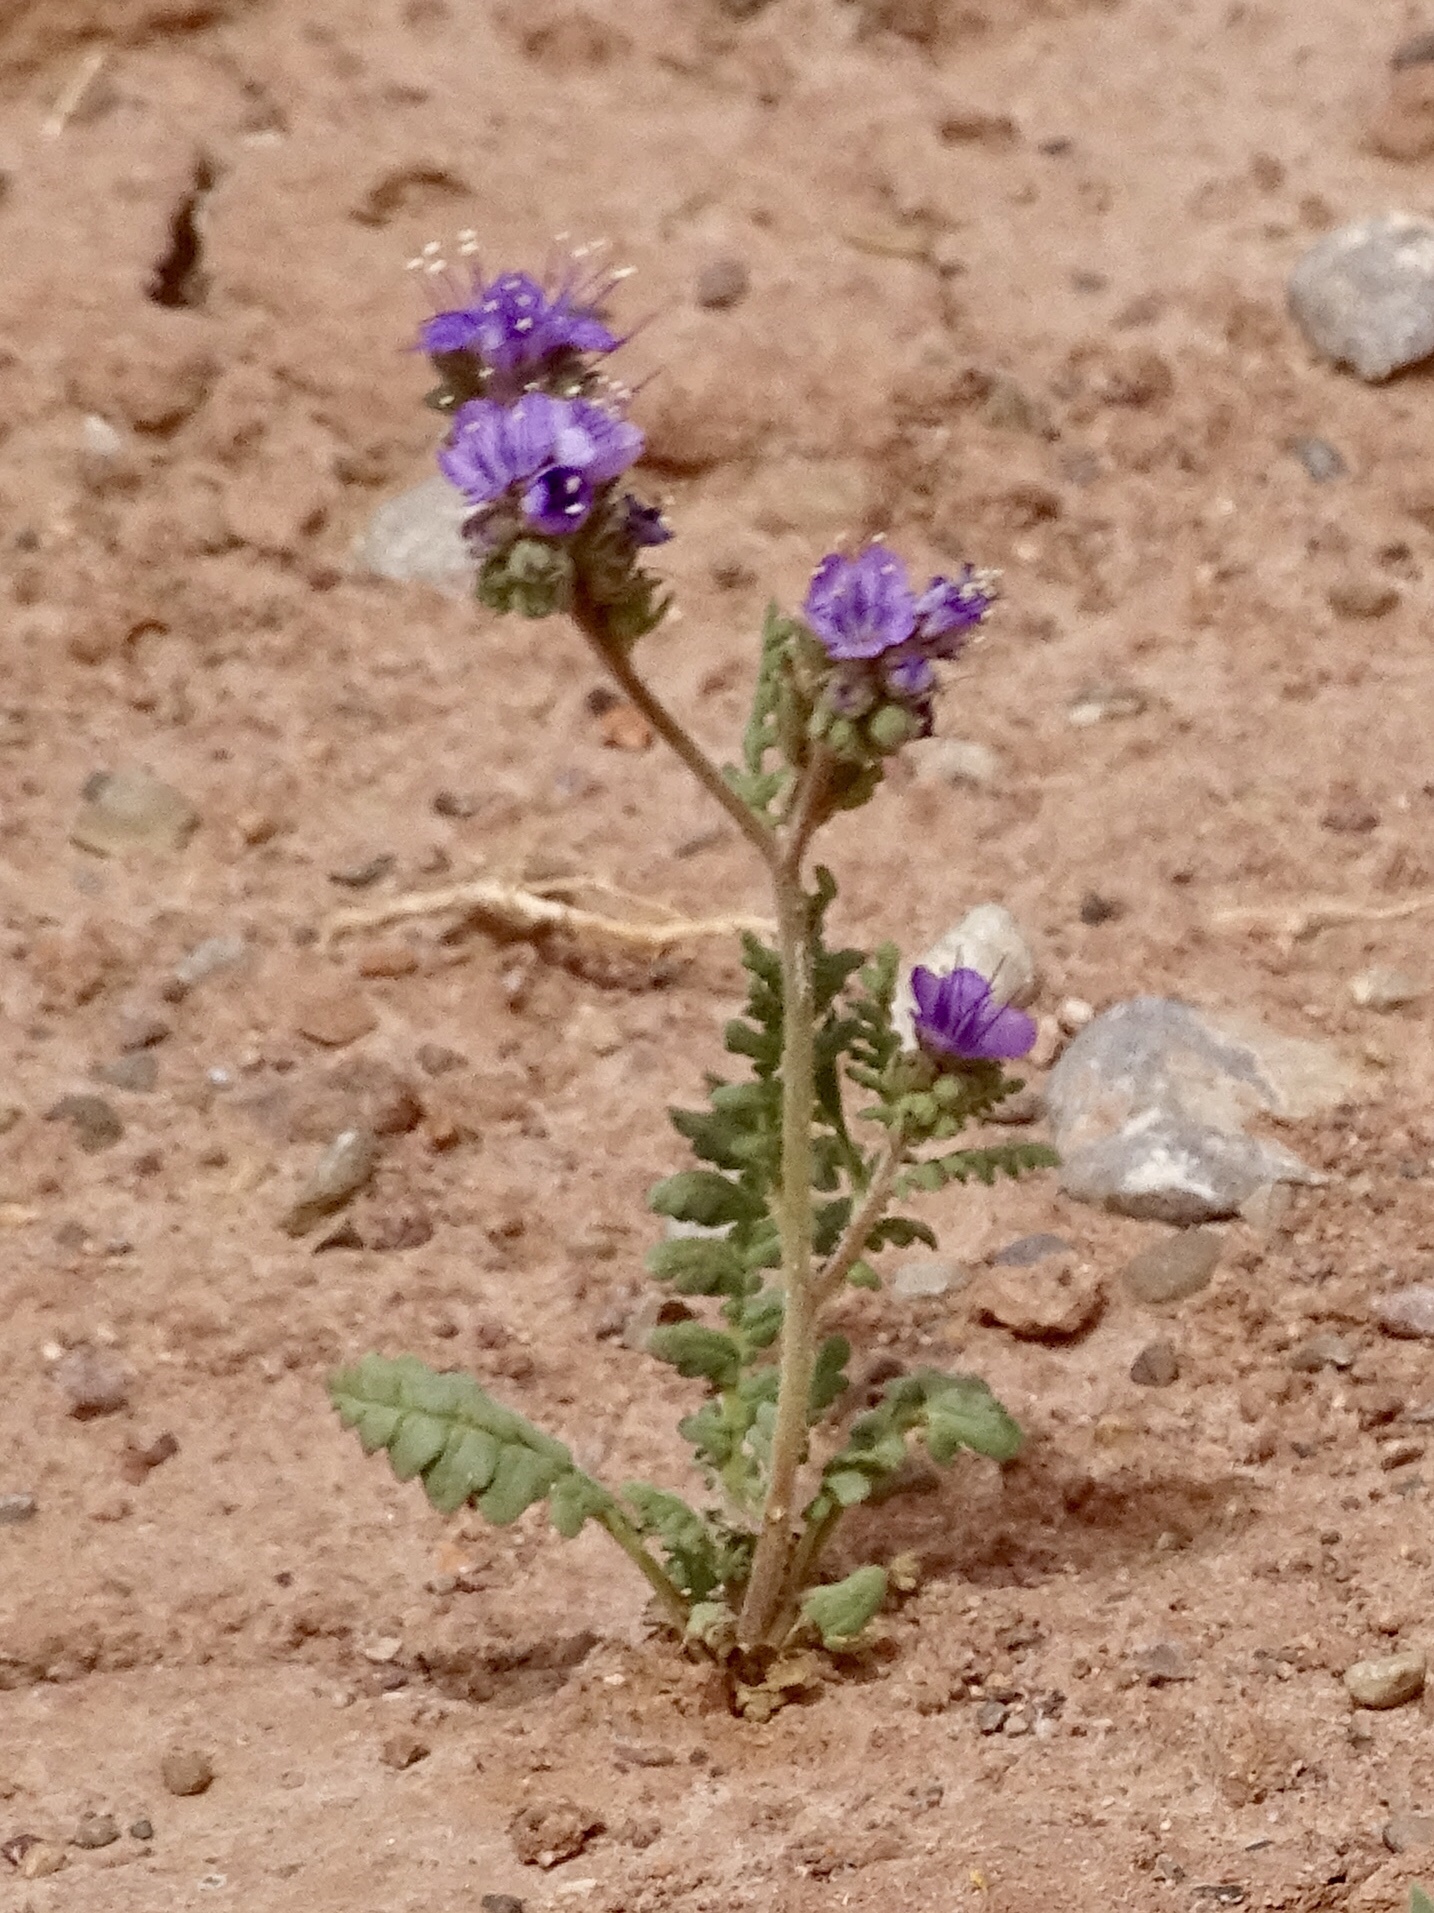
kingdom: Plantae
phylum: Tracheophyta
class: Magnoliopsida
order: Boraginales
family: Hydrophyllaceae
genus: Phacelia
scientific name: Phacelia popei
